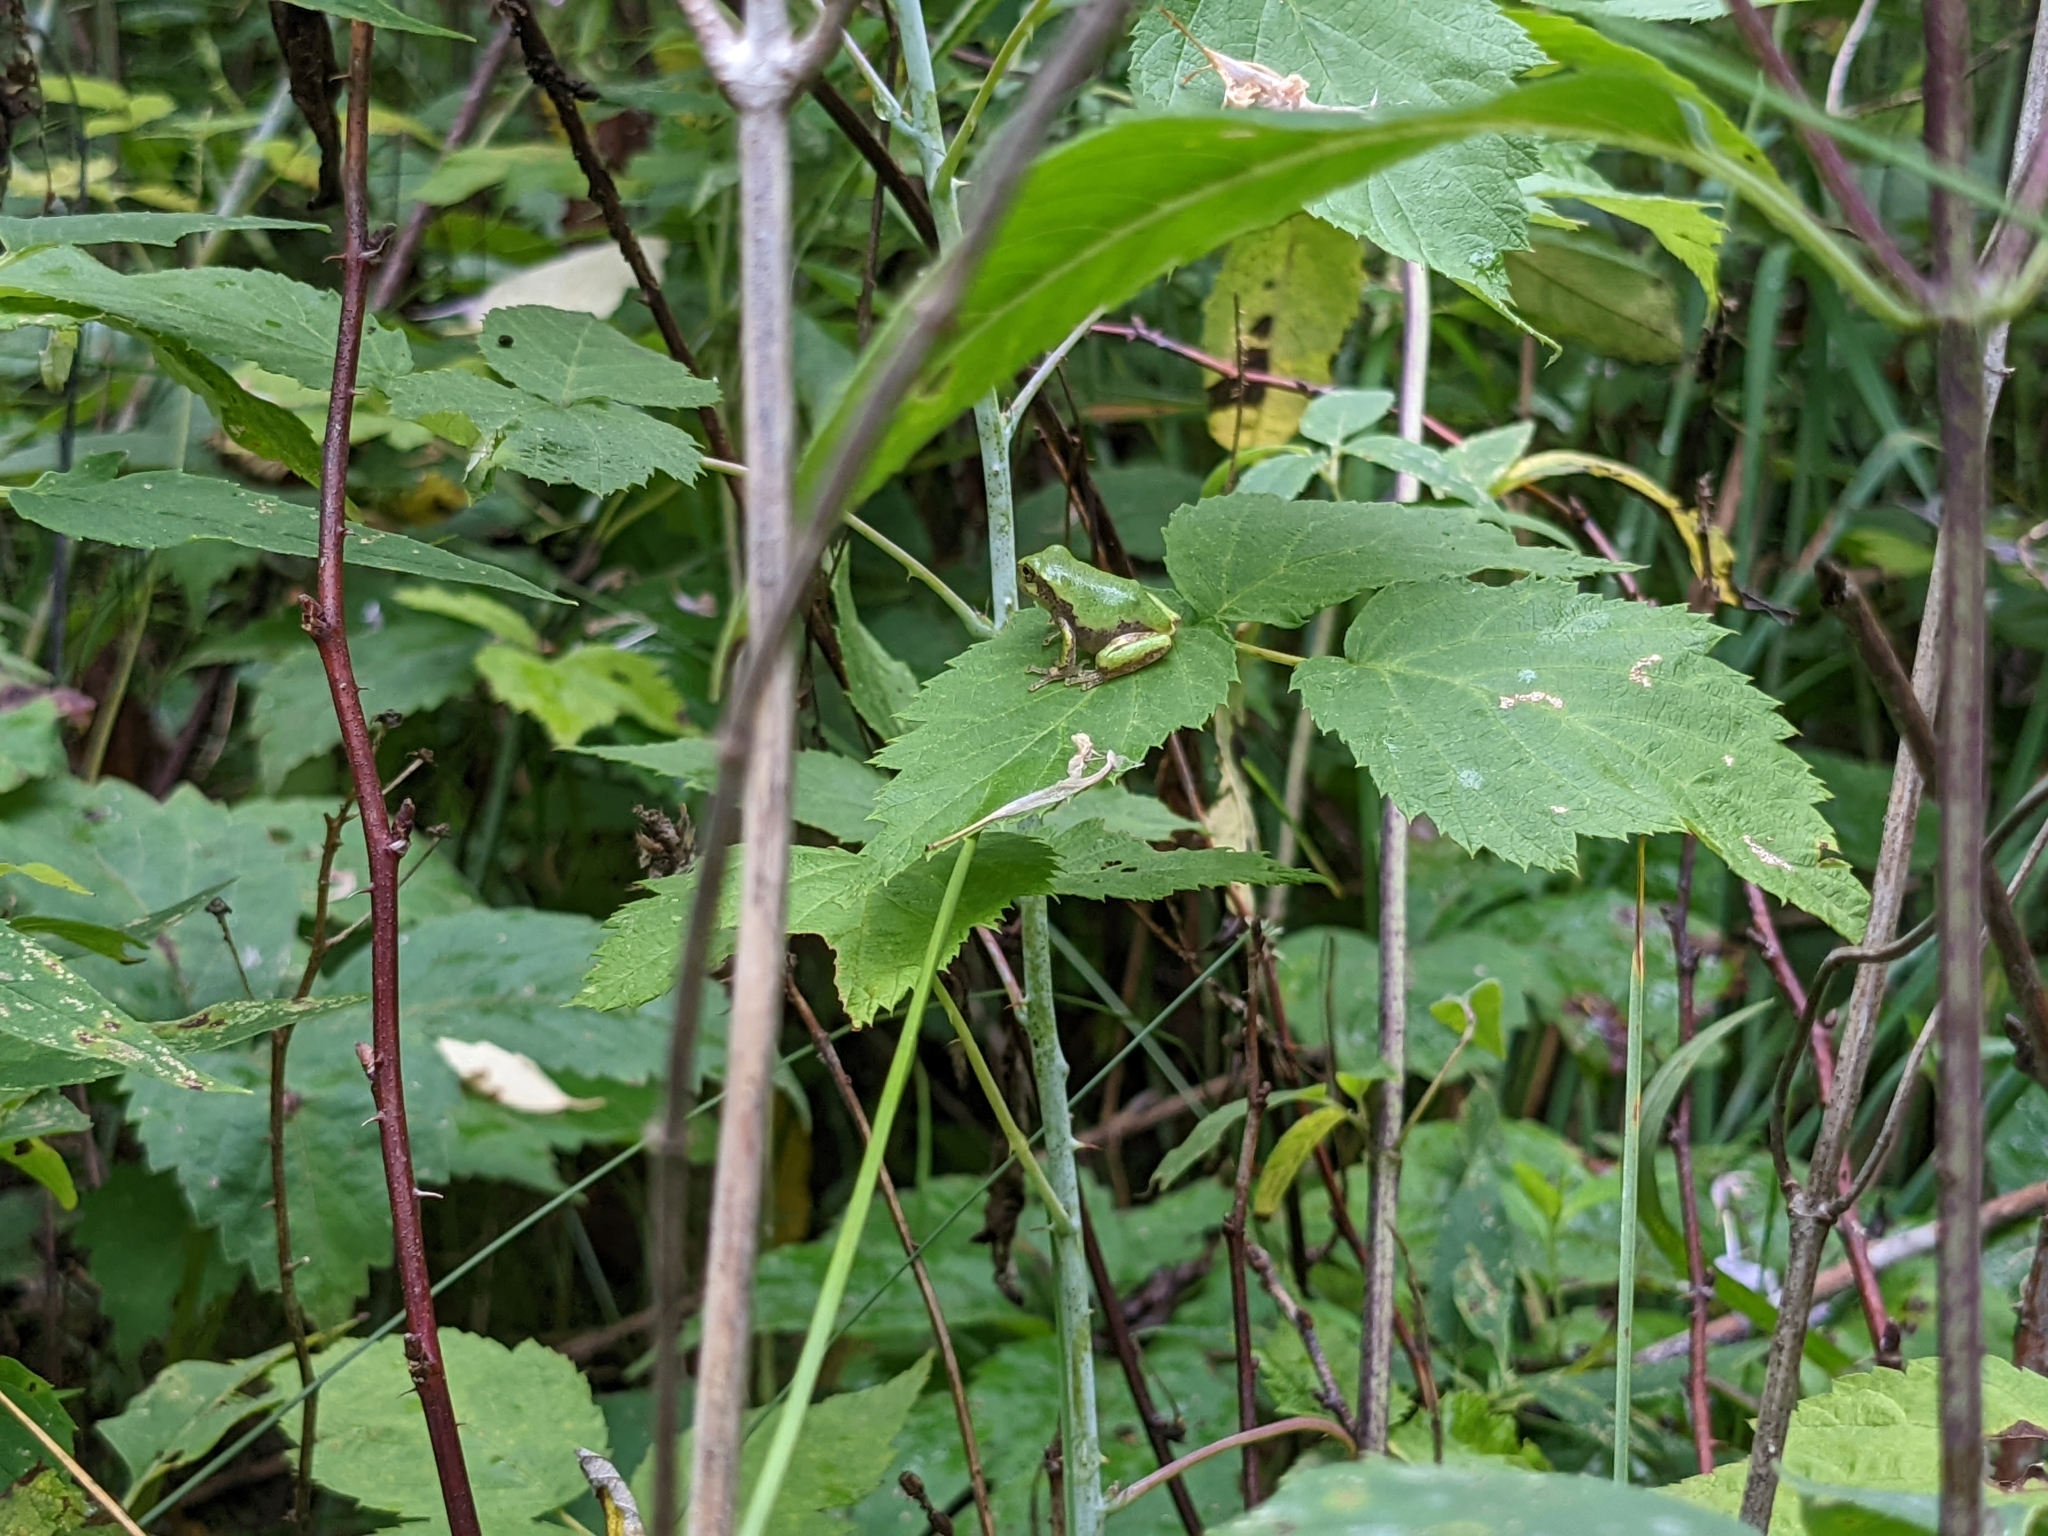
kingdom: Animalia
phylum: Chordata
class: Amphibia
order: Anura
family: Hylidae
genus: Hyla
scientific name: Hyla
